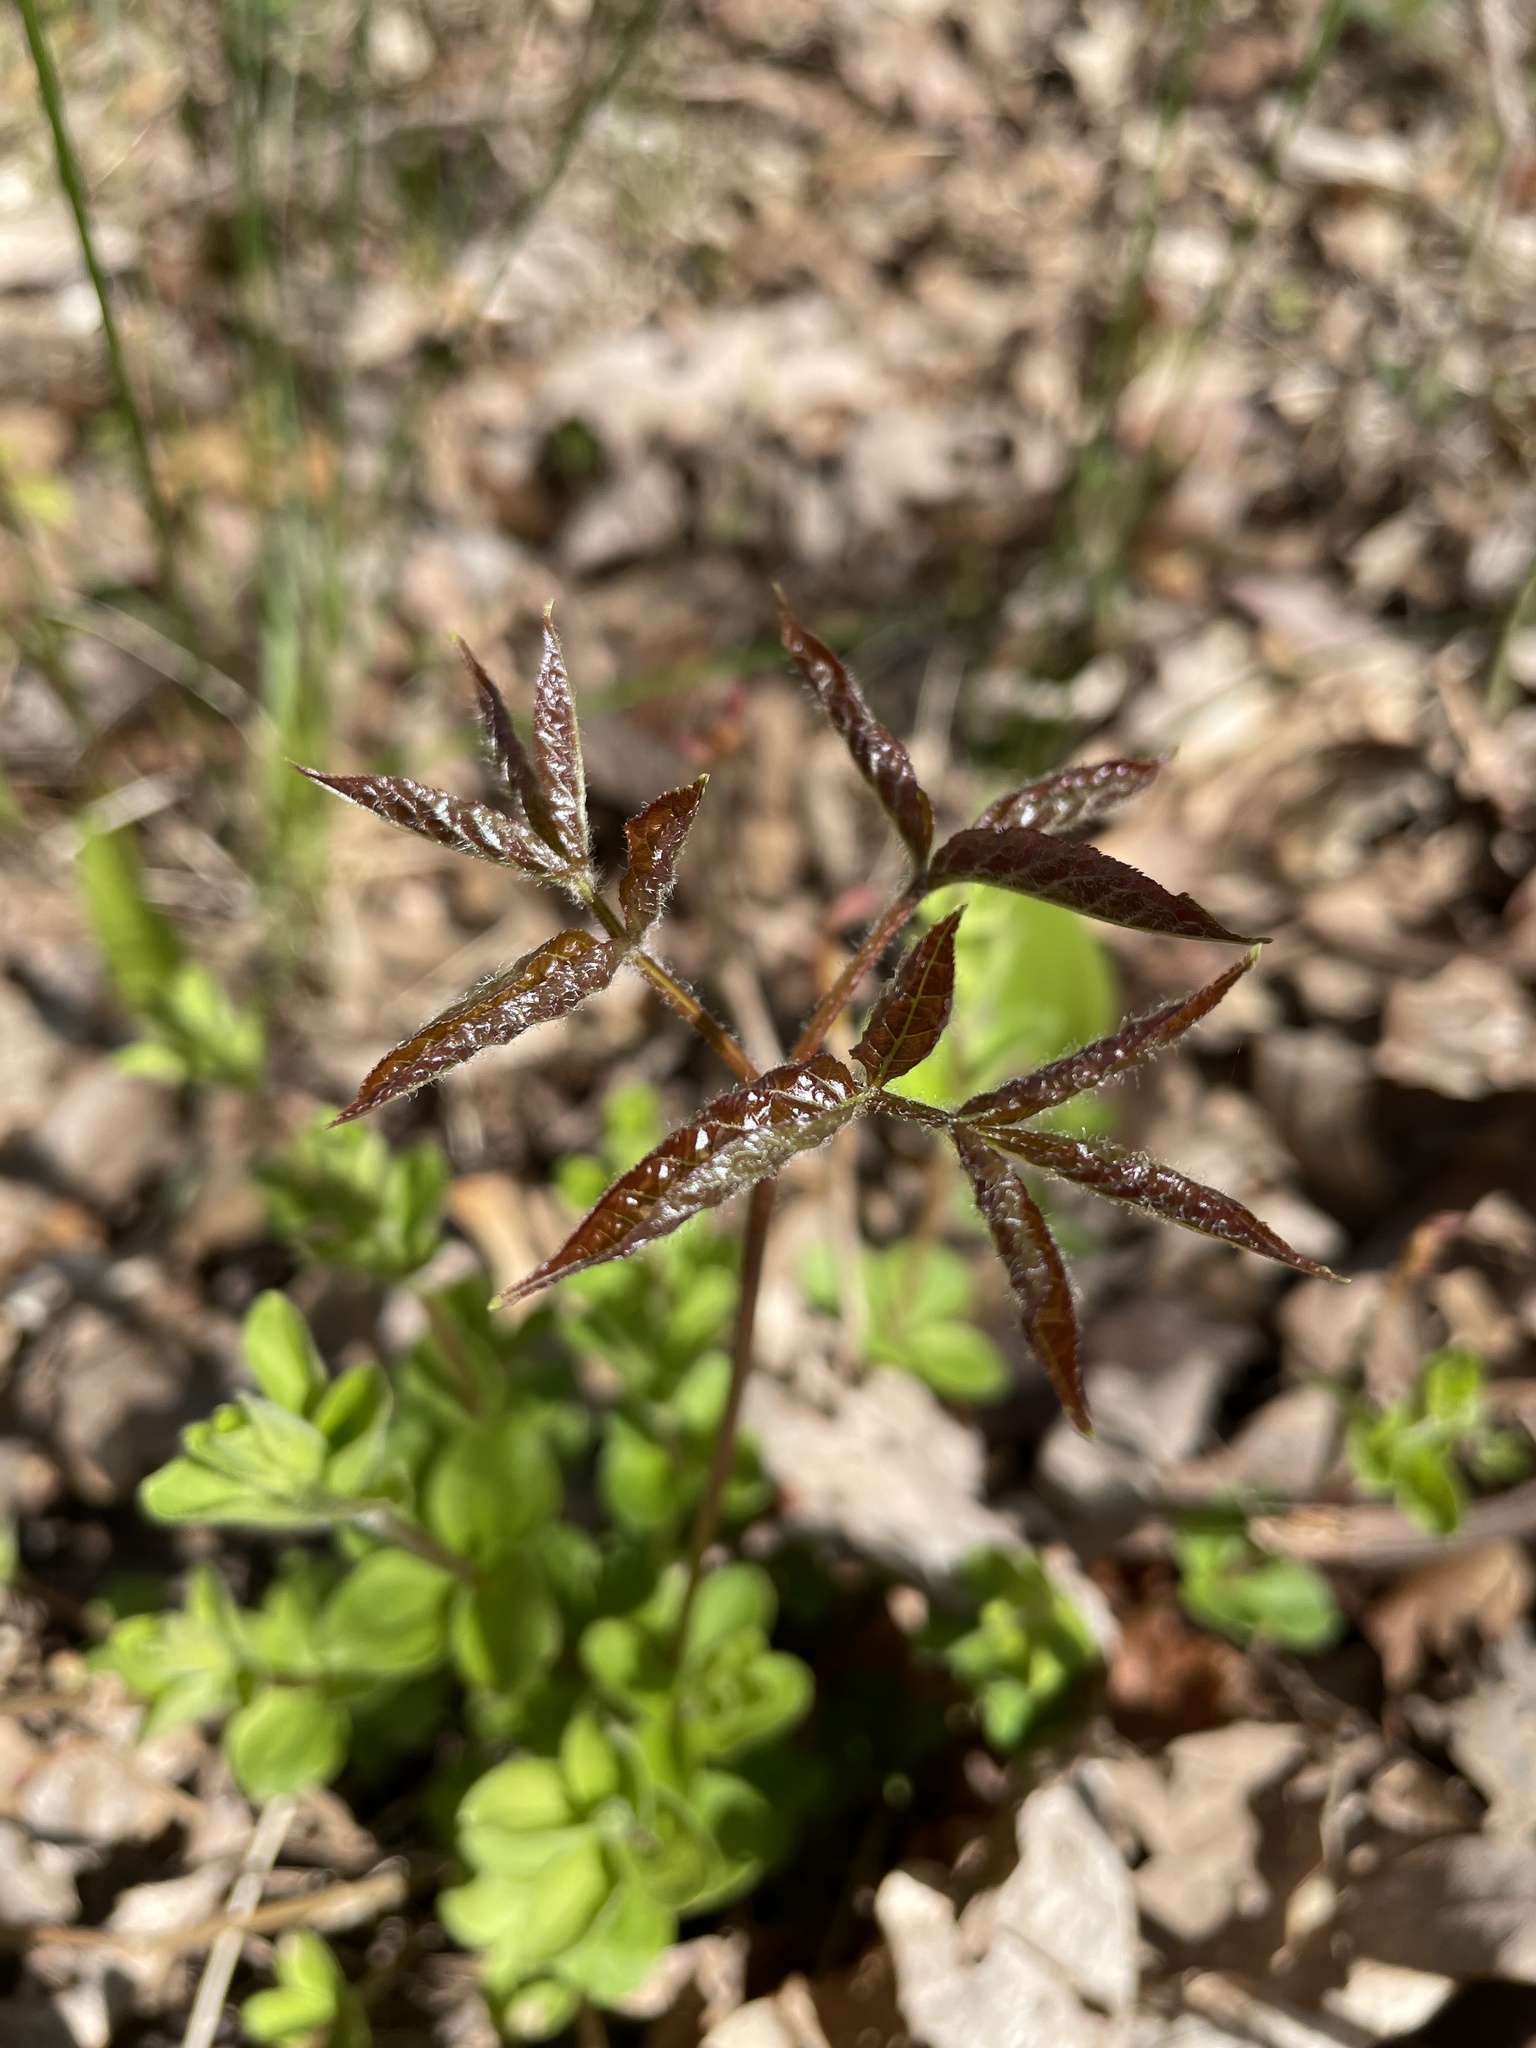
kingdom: Plantae
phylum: Tracheophyta
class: Magnoliopsida
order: Apiales
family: Araliaceae
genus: Aralia
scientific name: Aralia nudicaulis
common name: Wild sarsaparilla
